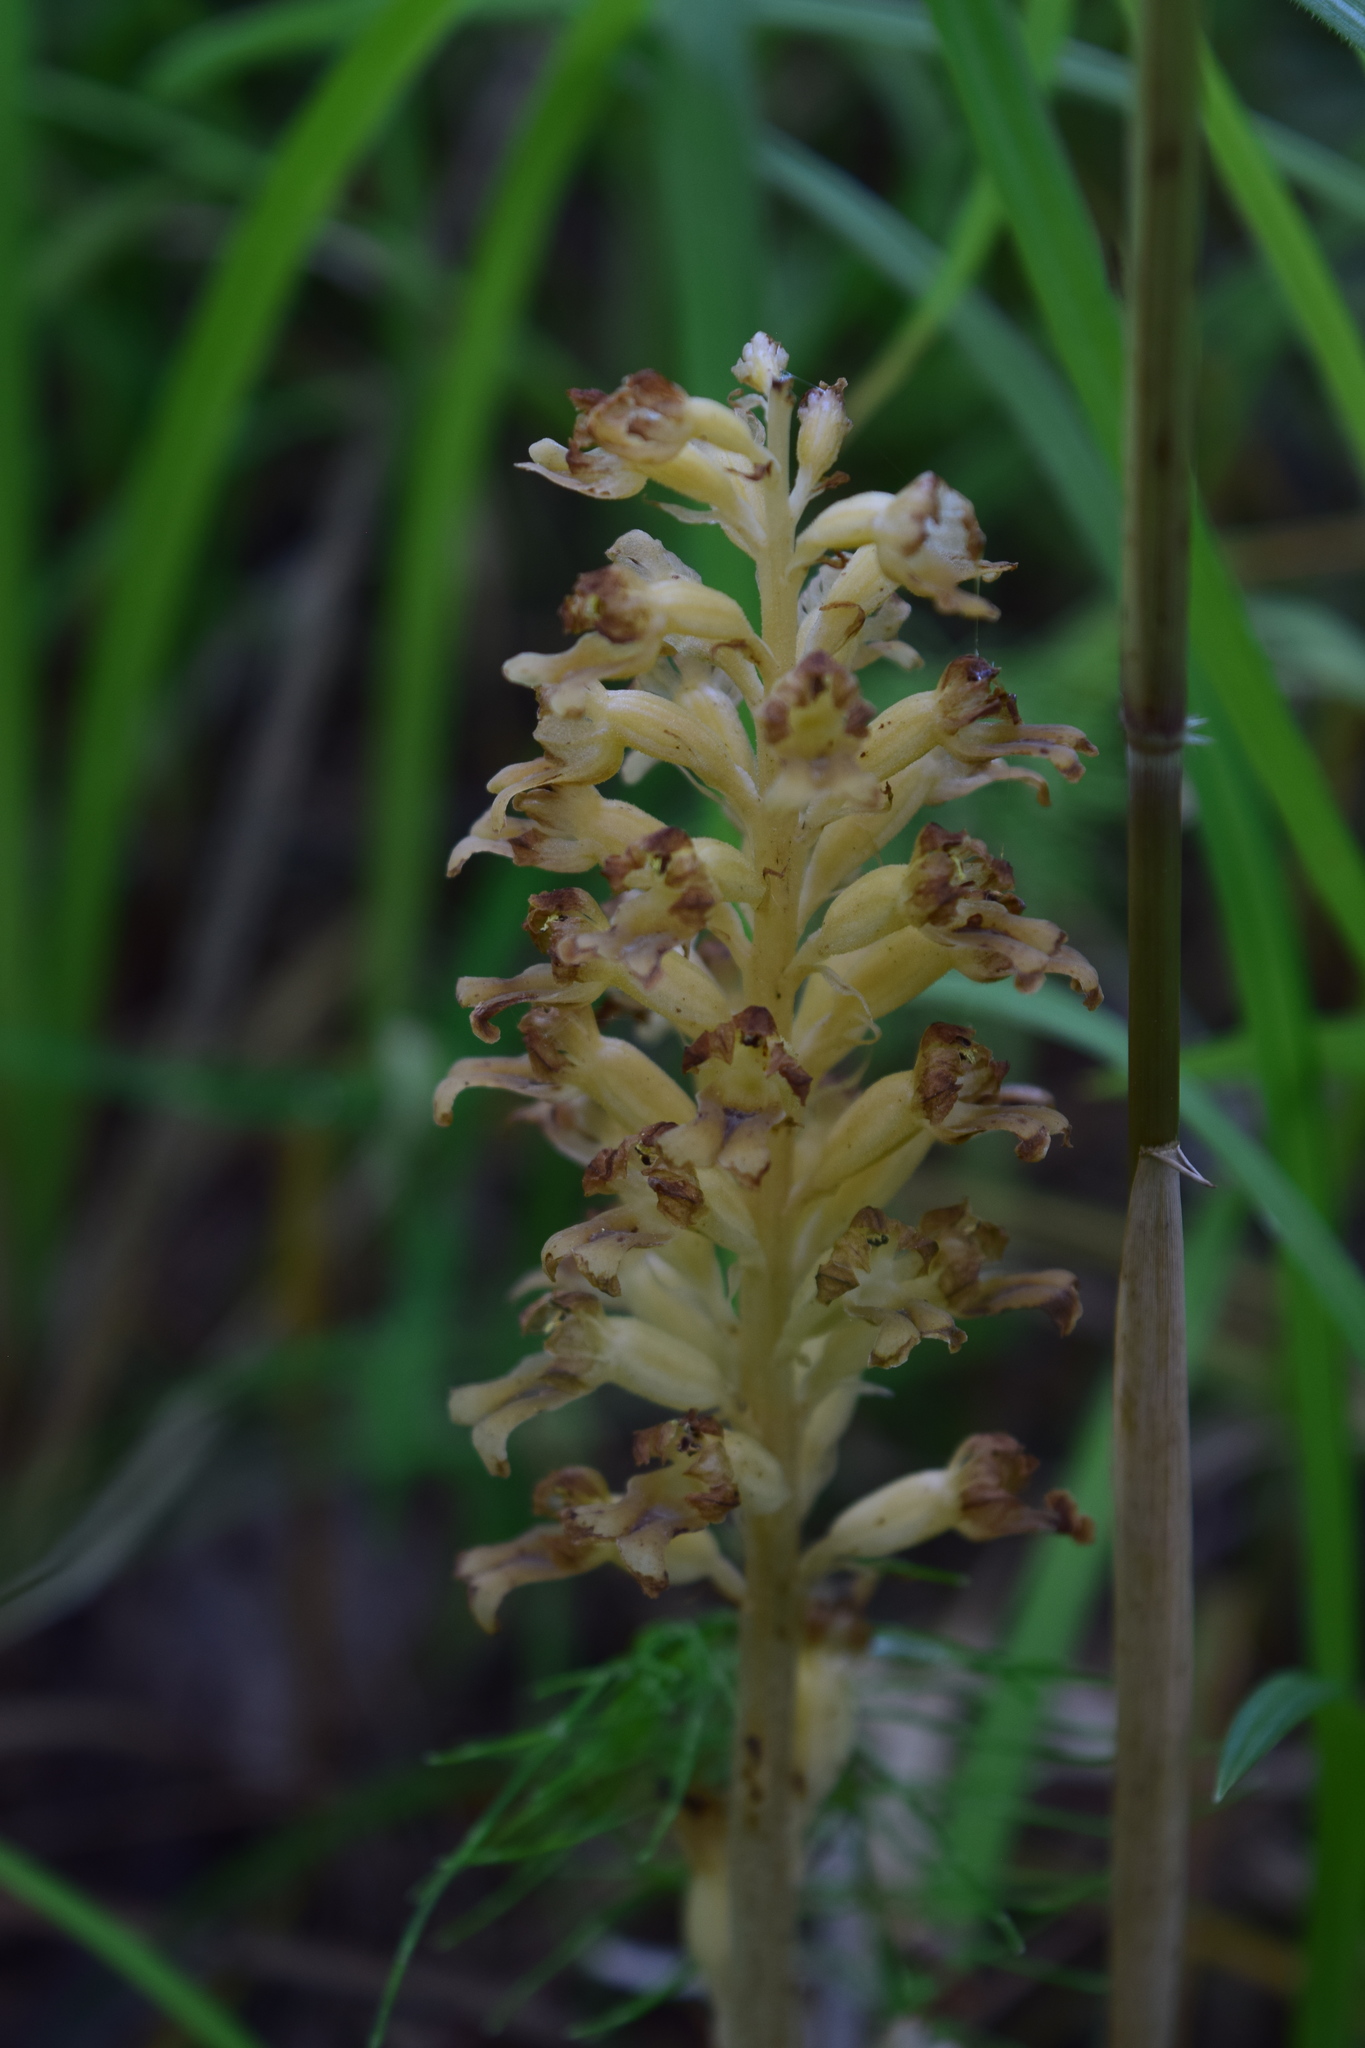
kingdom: Plantae
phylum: Tracheophyta
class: Liliopsida
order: Asparagales
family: Orchidaceae
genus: Neottia
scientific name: Neottia nidus-avis
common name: Bird's-nest orchid
